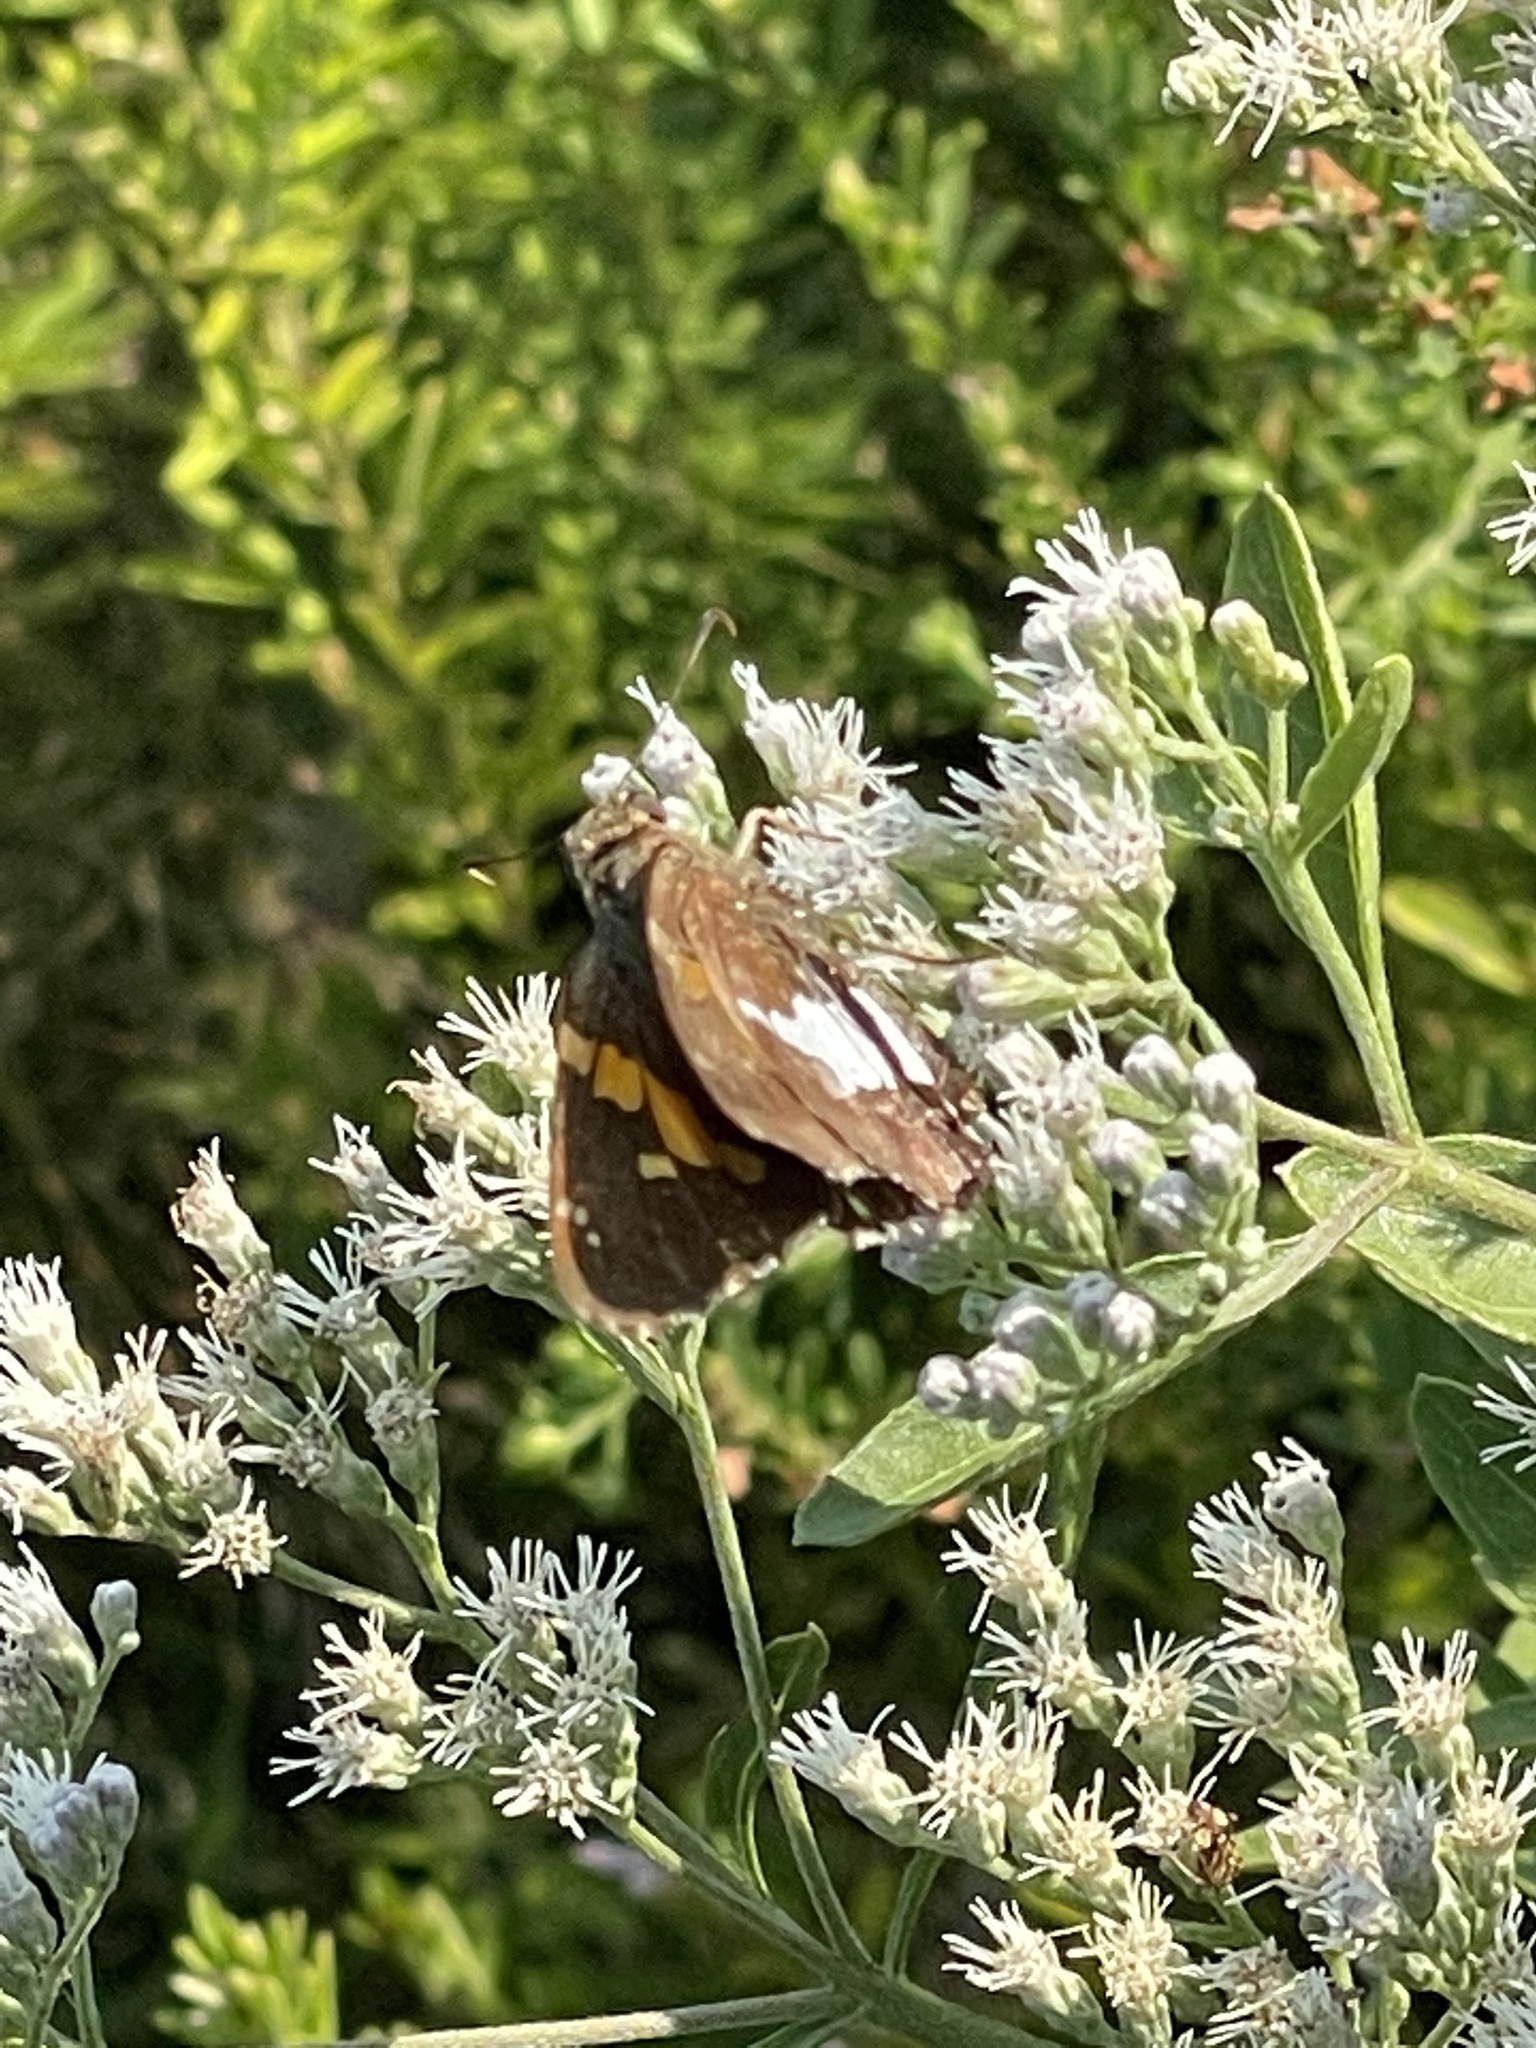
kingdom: Animalia
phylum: Arthropoda
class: Insecta
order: Lepidoptera
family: Hesperiidae
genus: Epargyreus
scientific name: Epargyreus clarus
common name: Silver-spotted skipper
